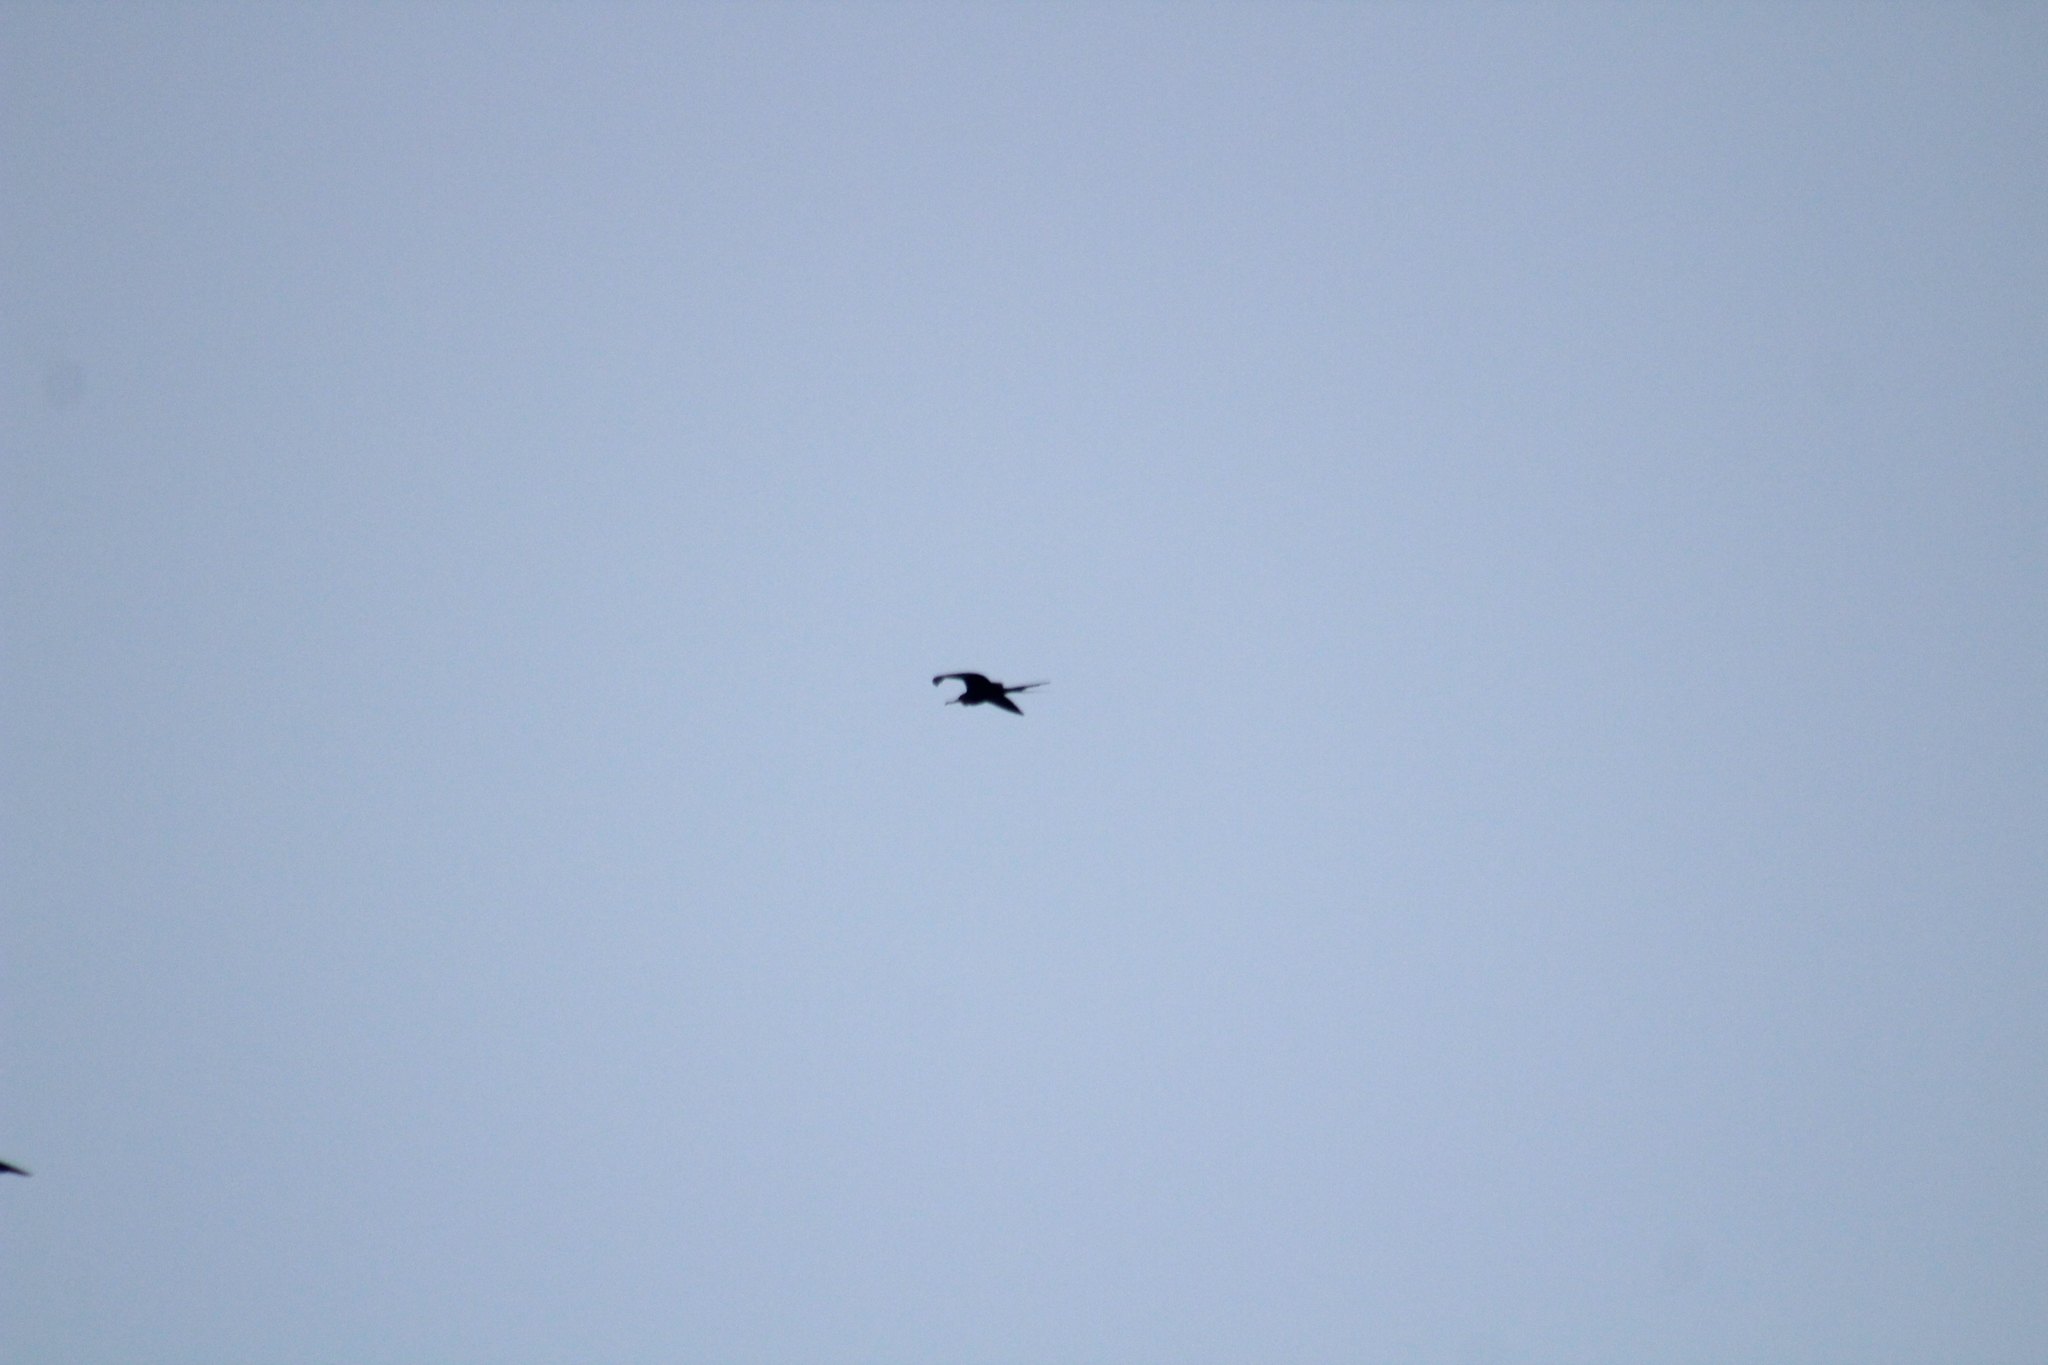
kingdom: Animalia
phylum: Chordata
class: Aves
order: Suliformes
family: Fregatidae
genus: Fregata
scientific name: Fregata magnificens
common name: Magnificent frigatebird
